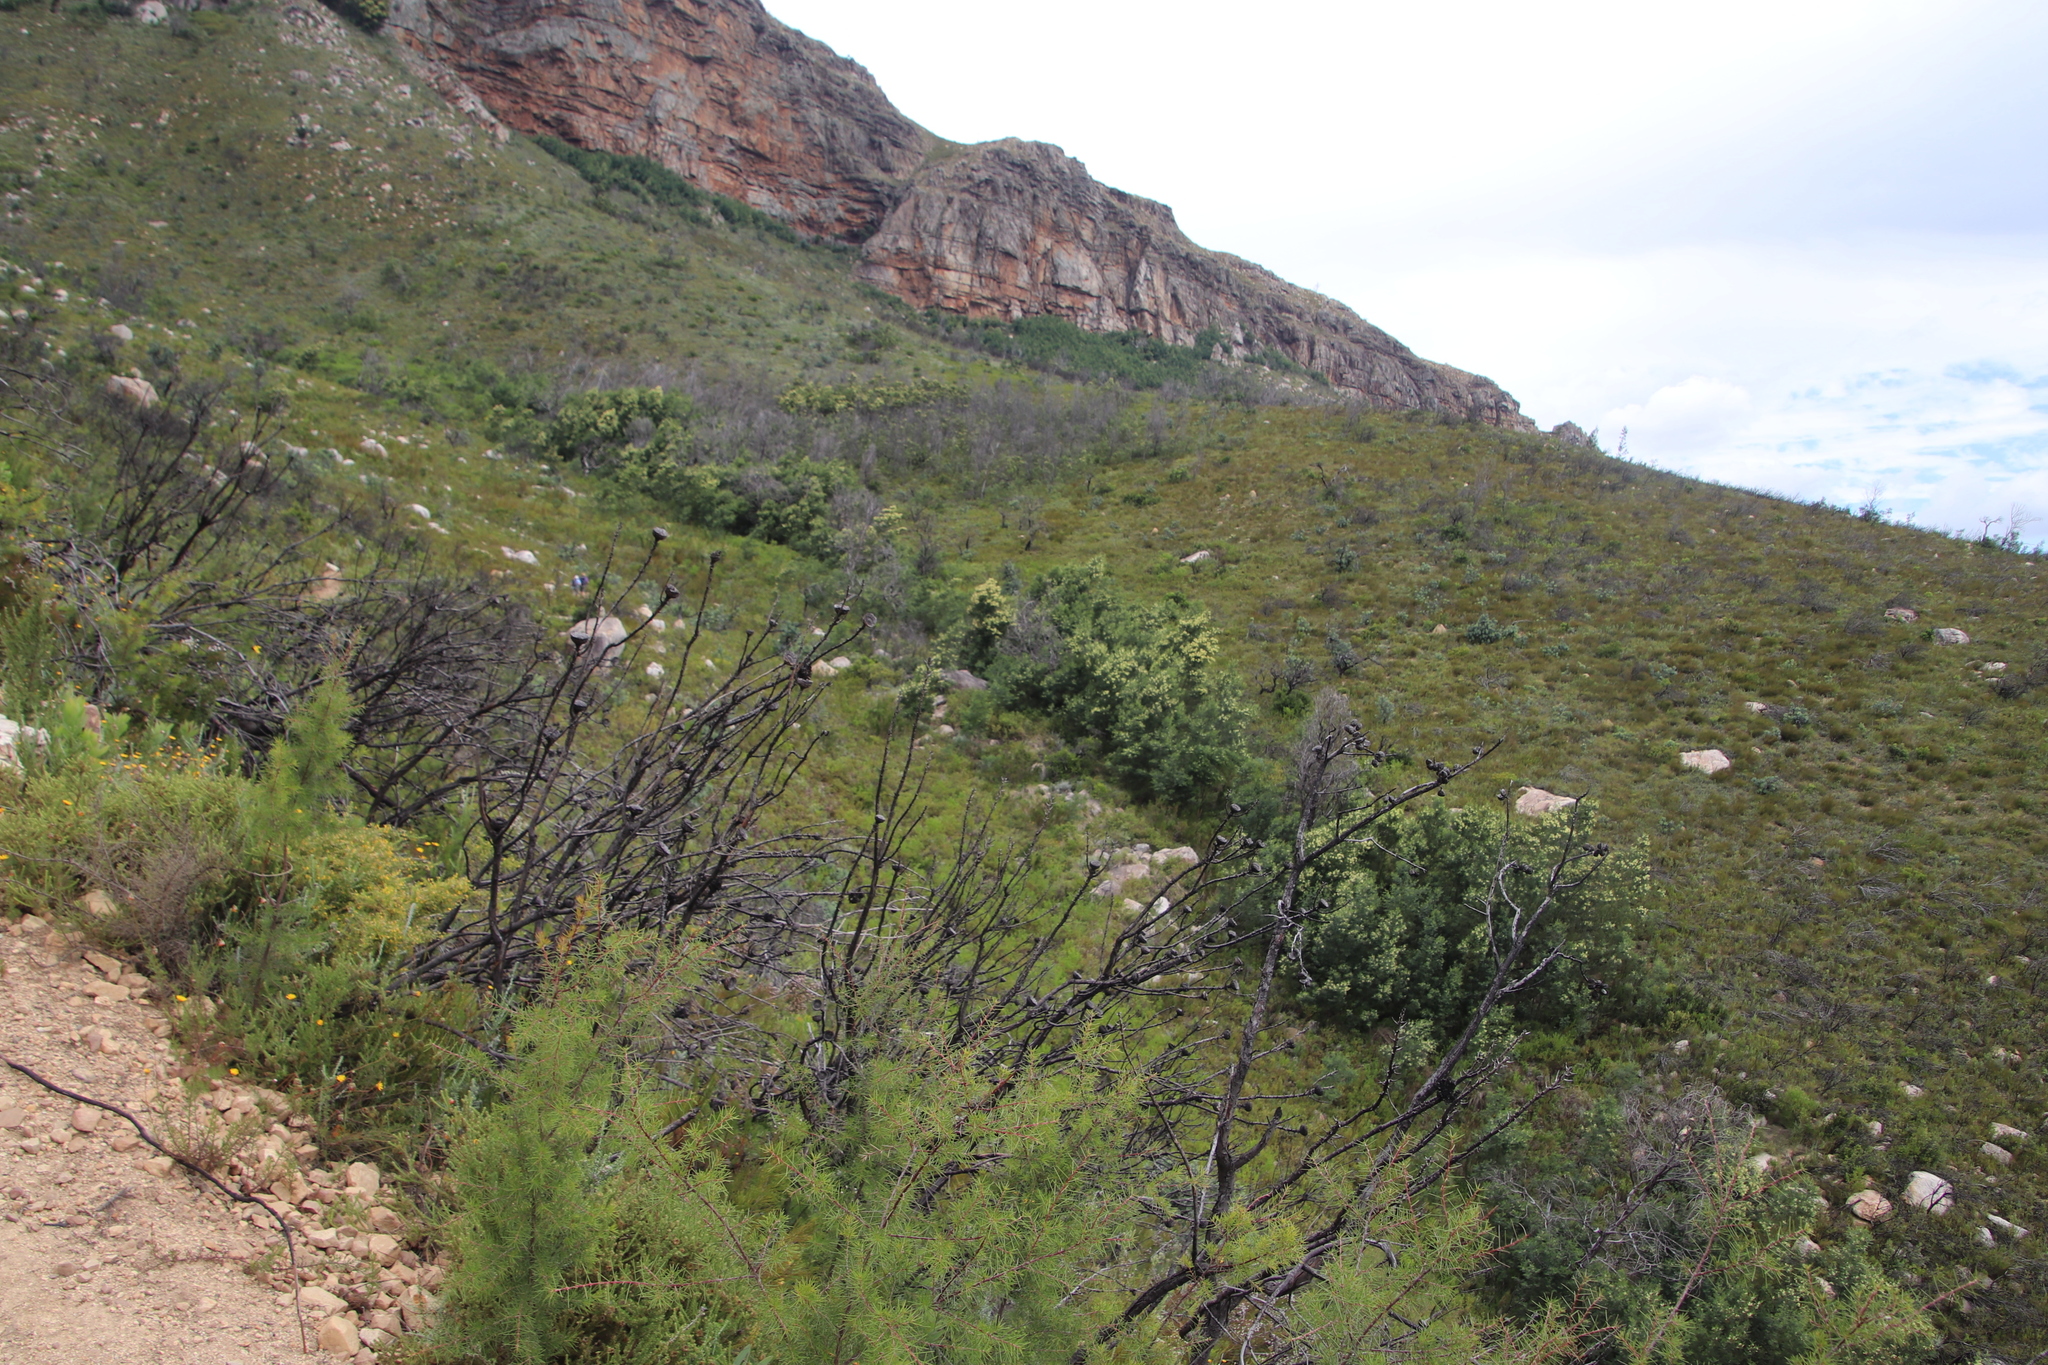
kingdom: Plantae
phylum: Tracheophyta
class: Magnoliopsida
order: Fabales
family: Fabaceae
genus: Acacia
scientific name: Acacia mearnsii
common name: Black wattle
